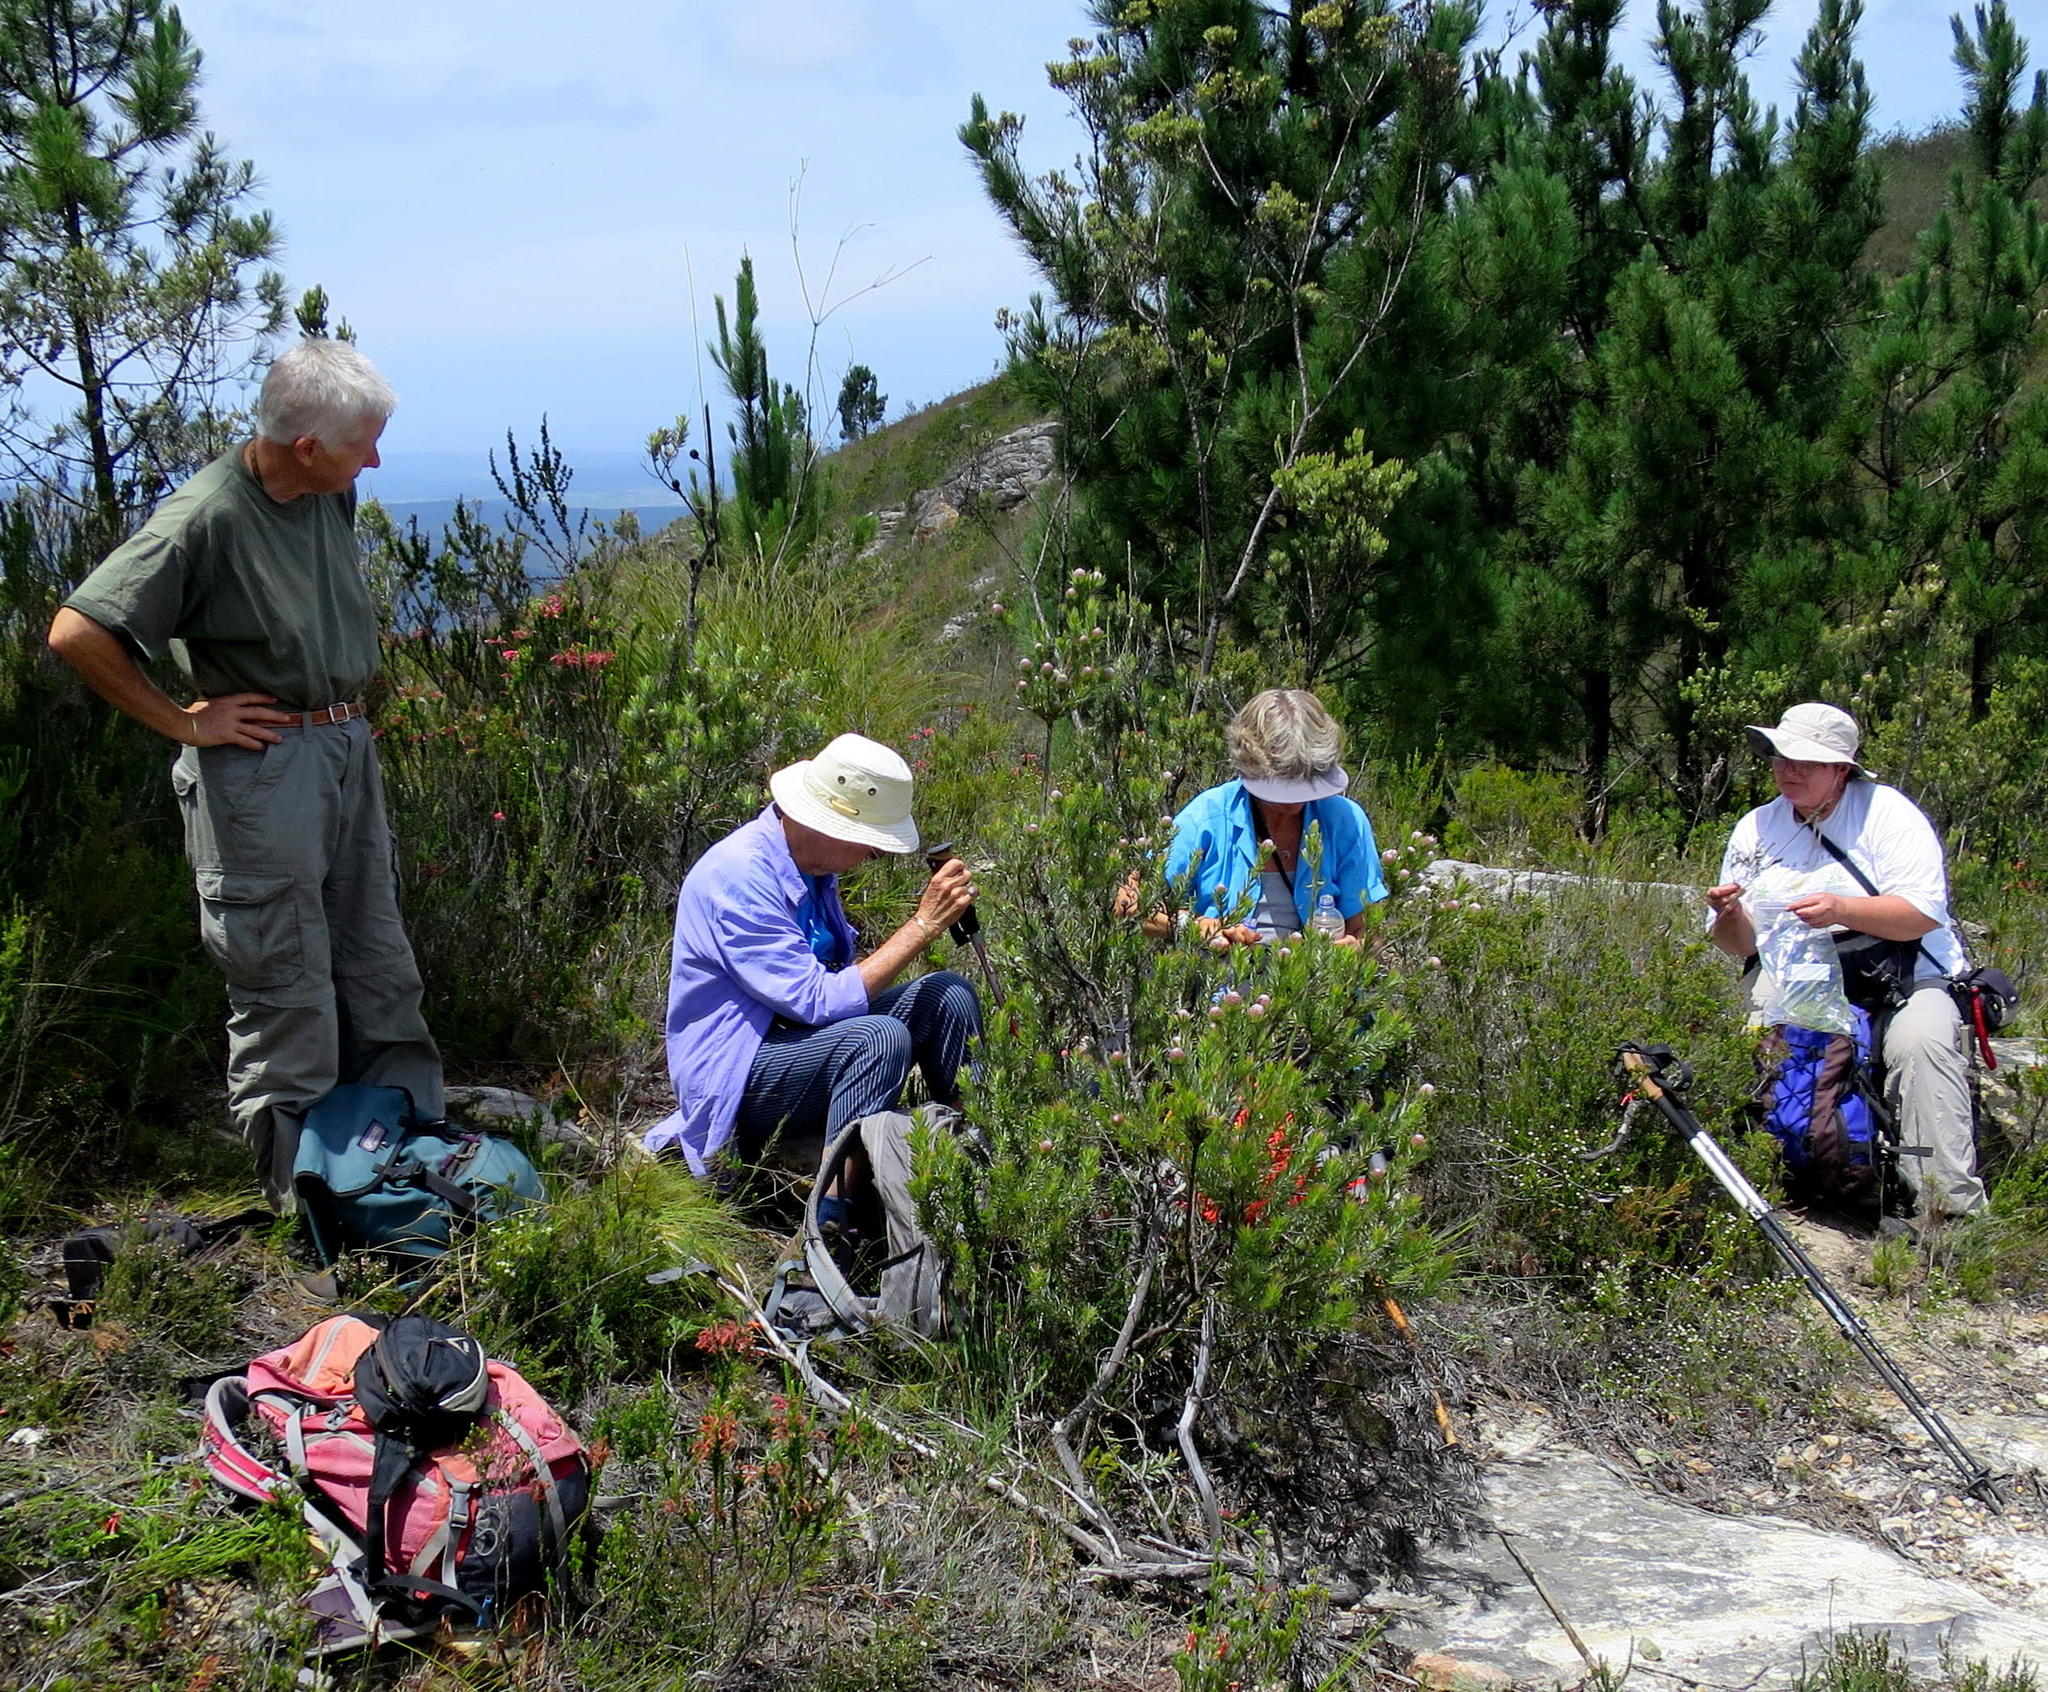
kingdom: Plantae
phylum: Tracheophyta
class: Pinopsida
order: Pinales
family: Pinaceae
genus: Pinus
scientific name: Pinus radiata
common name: Monterey pine
